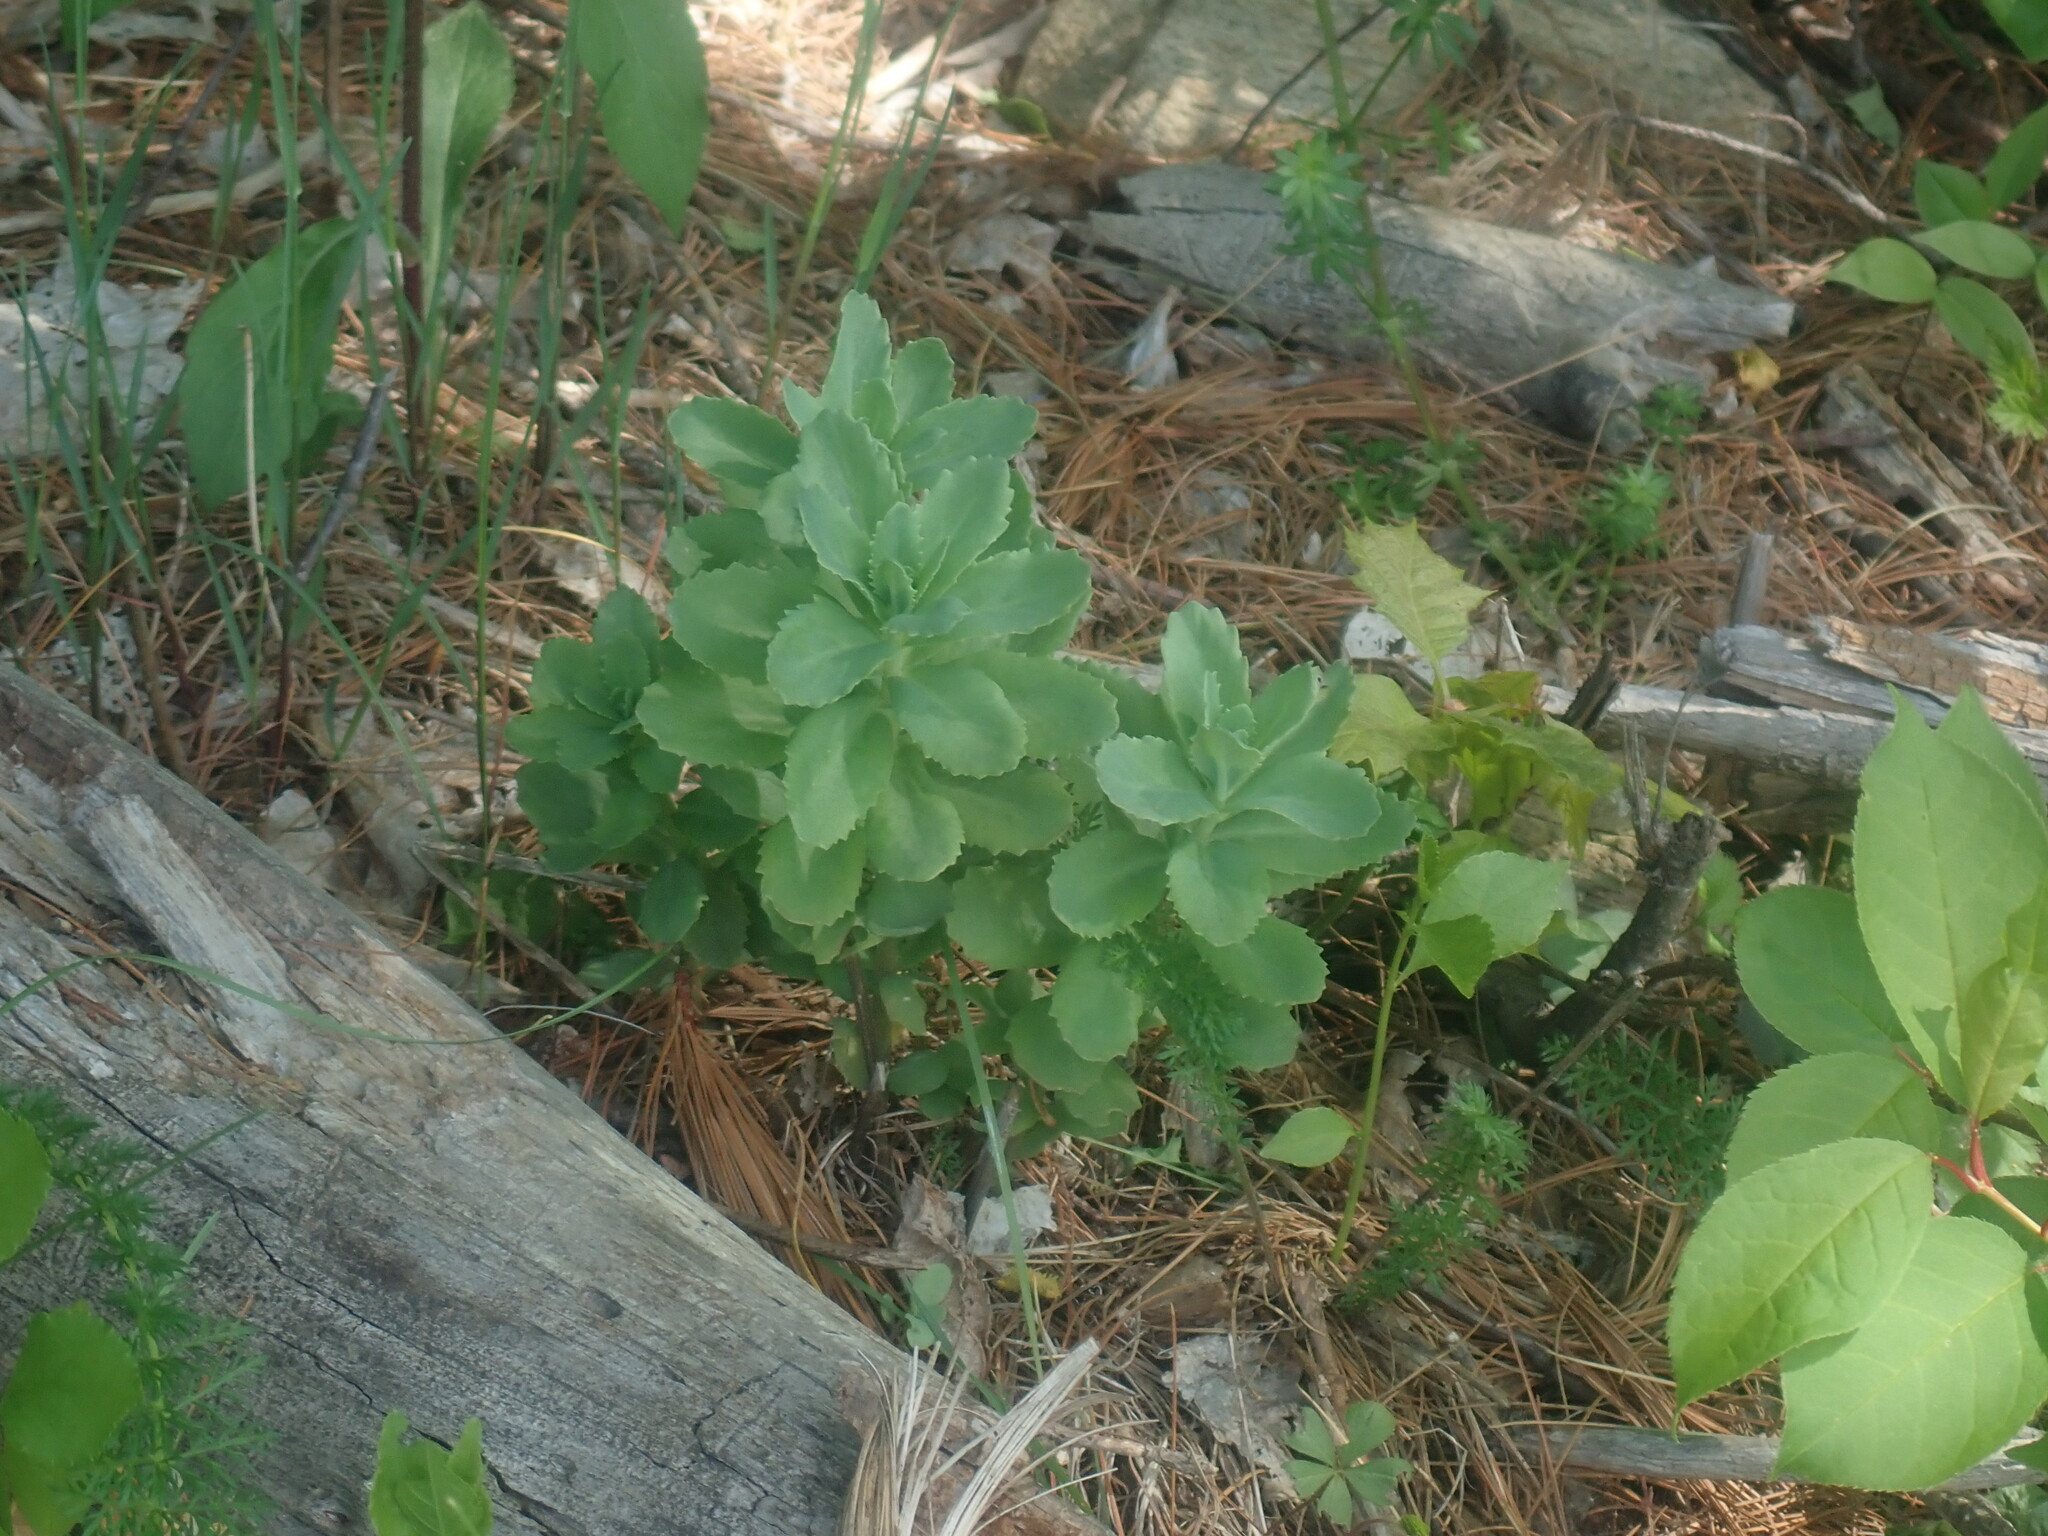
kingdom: Plantae
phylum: Tracheophyta
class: Magnoliopsida
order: Saxifragales
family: Crassulaceae
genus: Hylotelephium
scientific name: Hylotelephium telephium
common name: Live-forever
